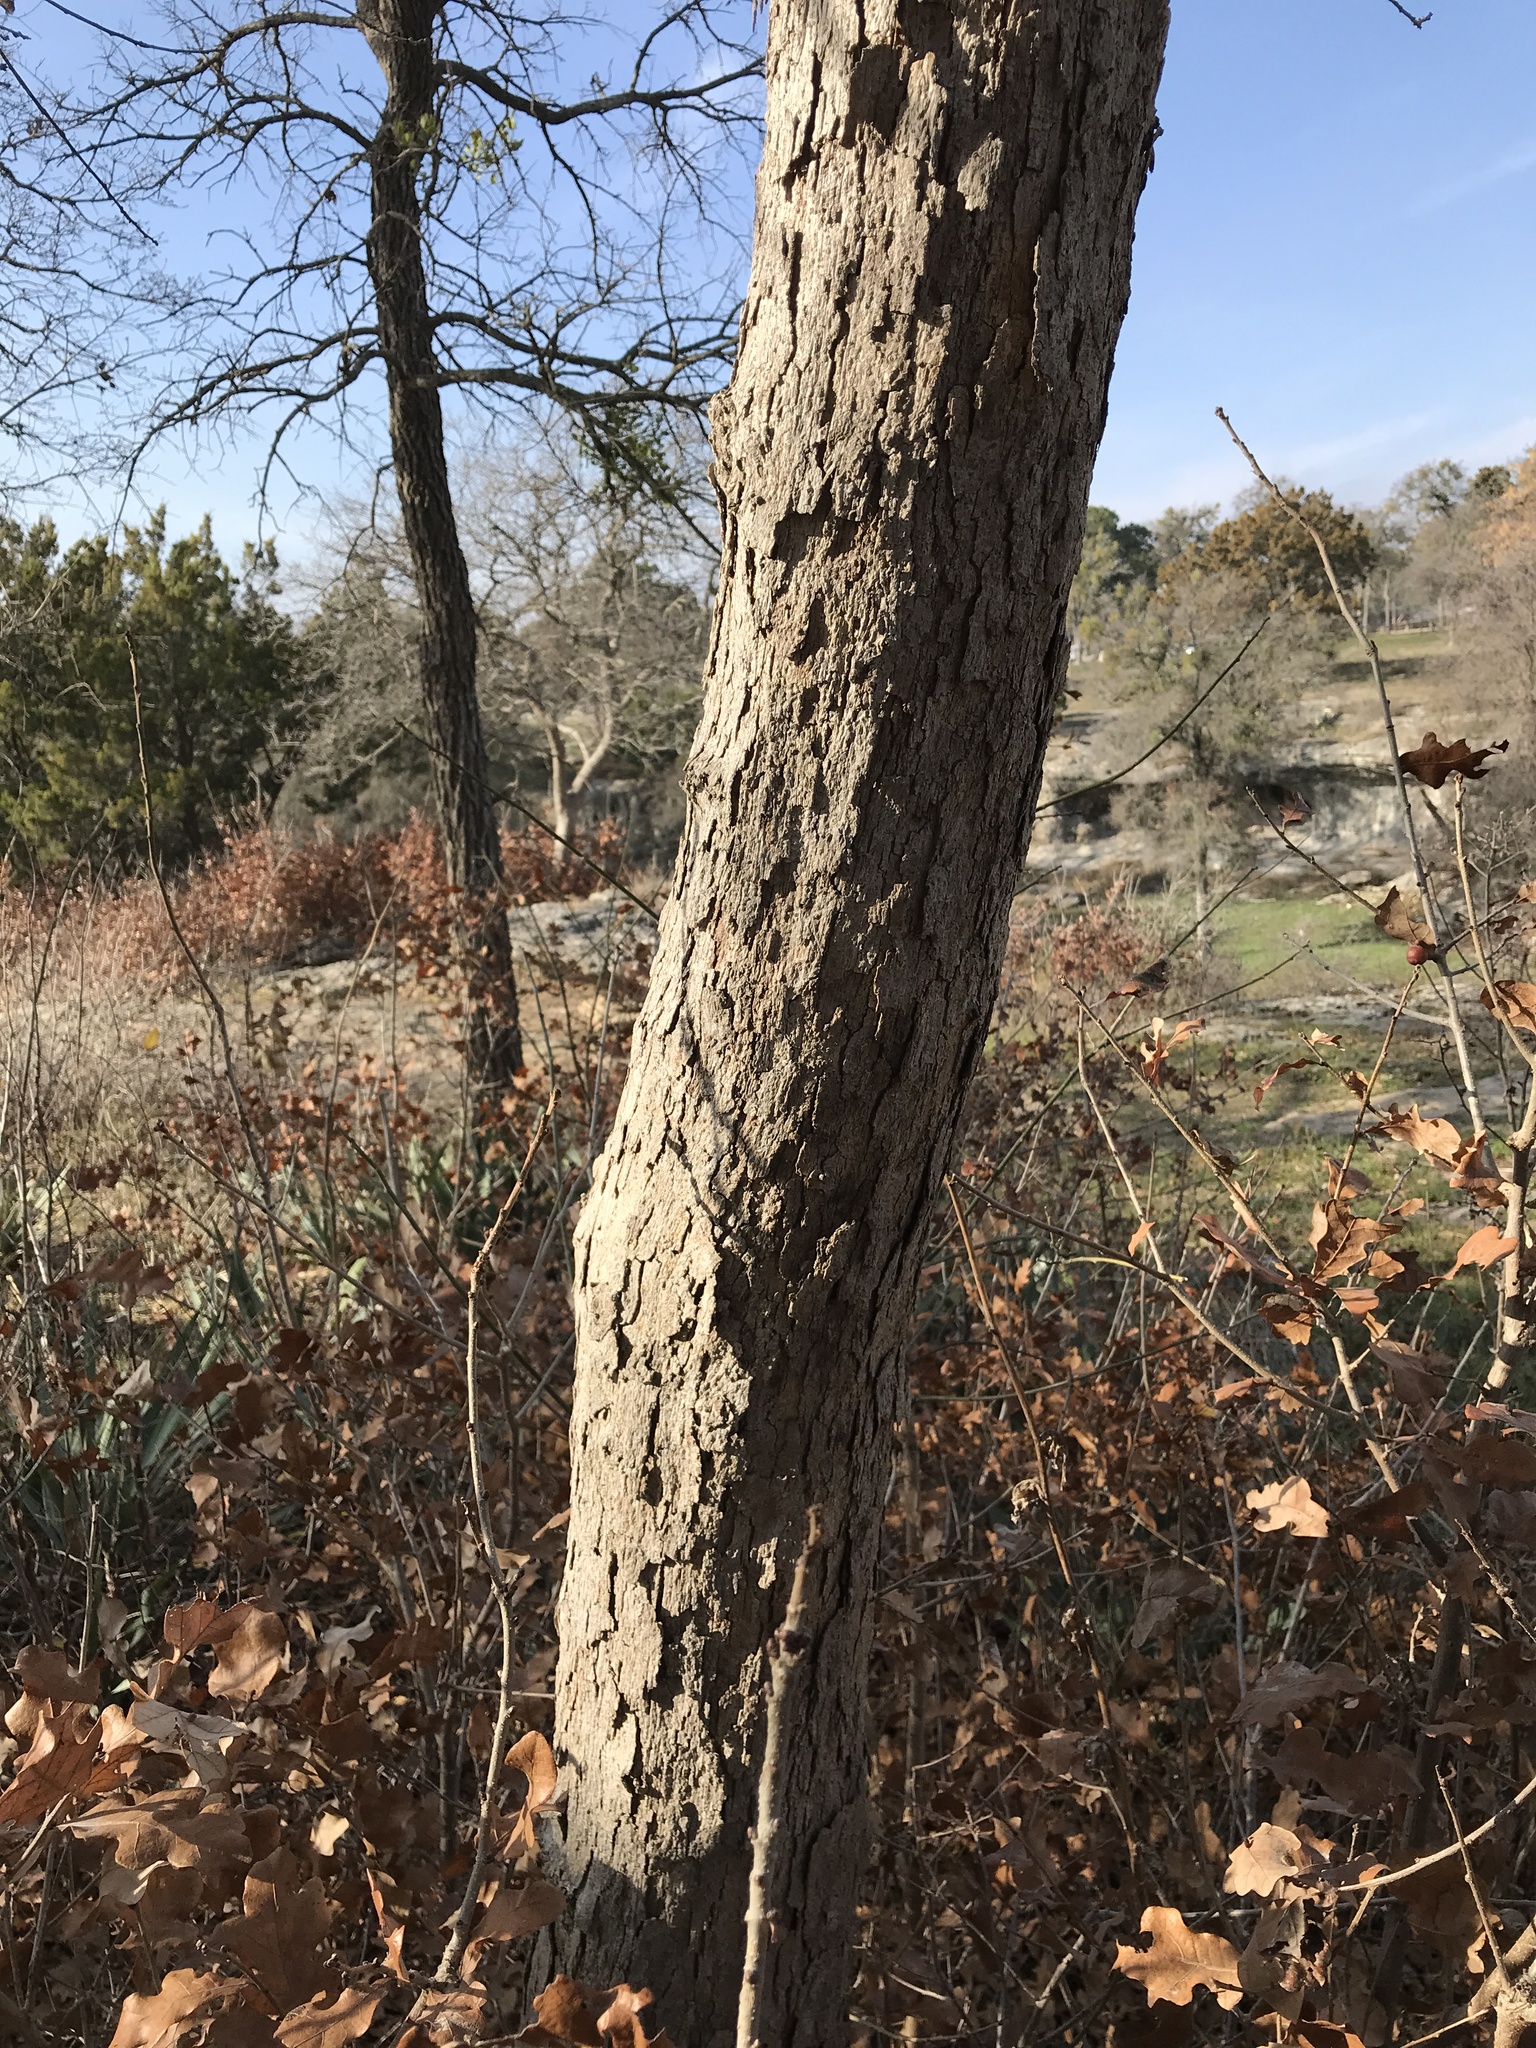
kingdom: Plantae
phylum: Tracheophyta
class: Magnoliopsida
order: Fagales
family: Fagaceae
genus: Quercus
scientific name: Quercus sinuata
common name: Durand oak
